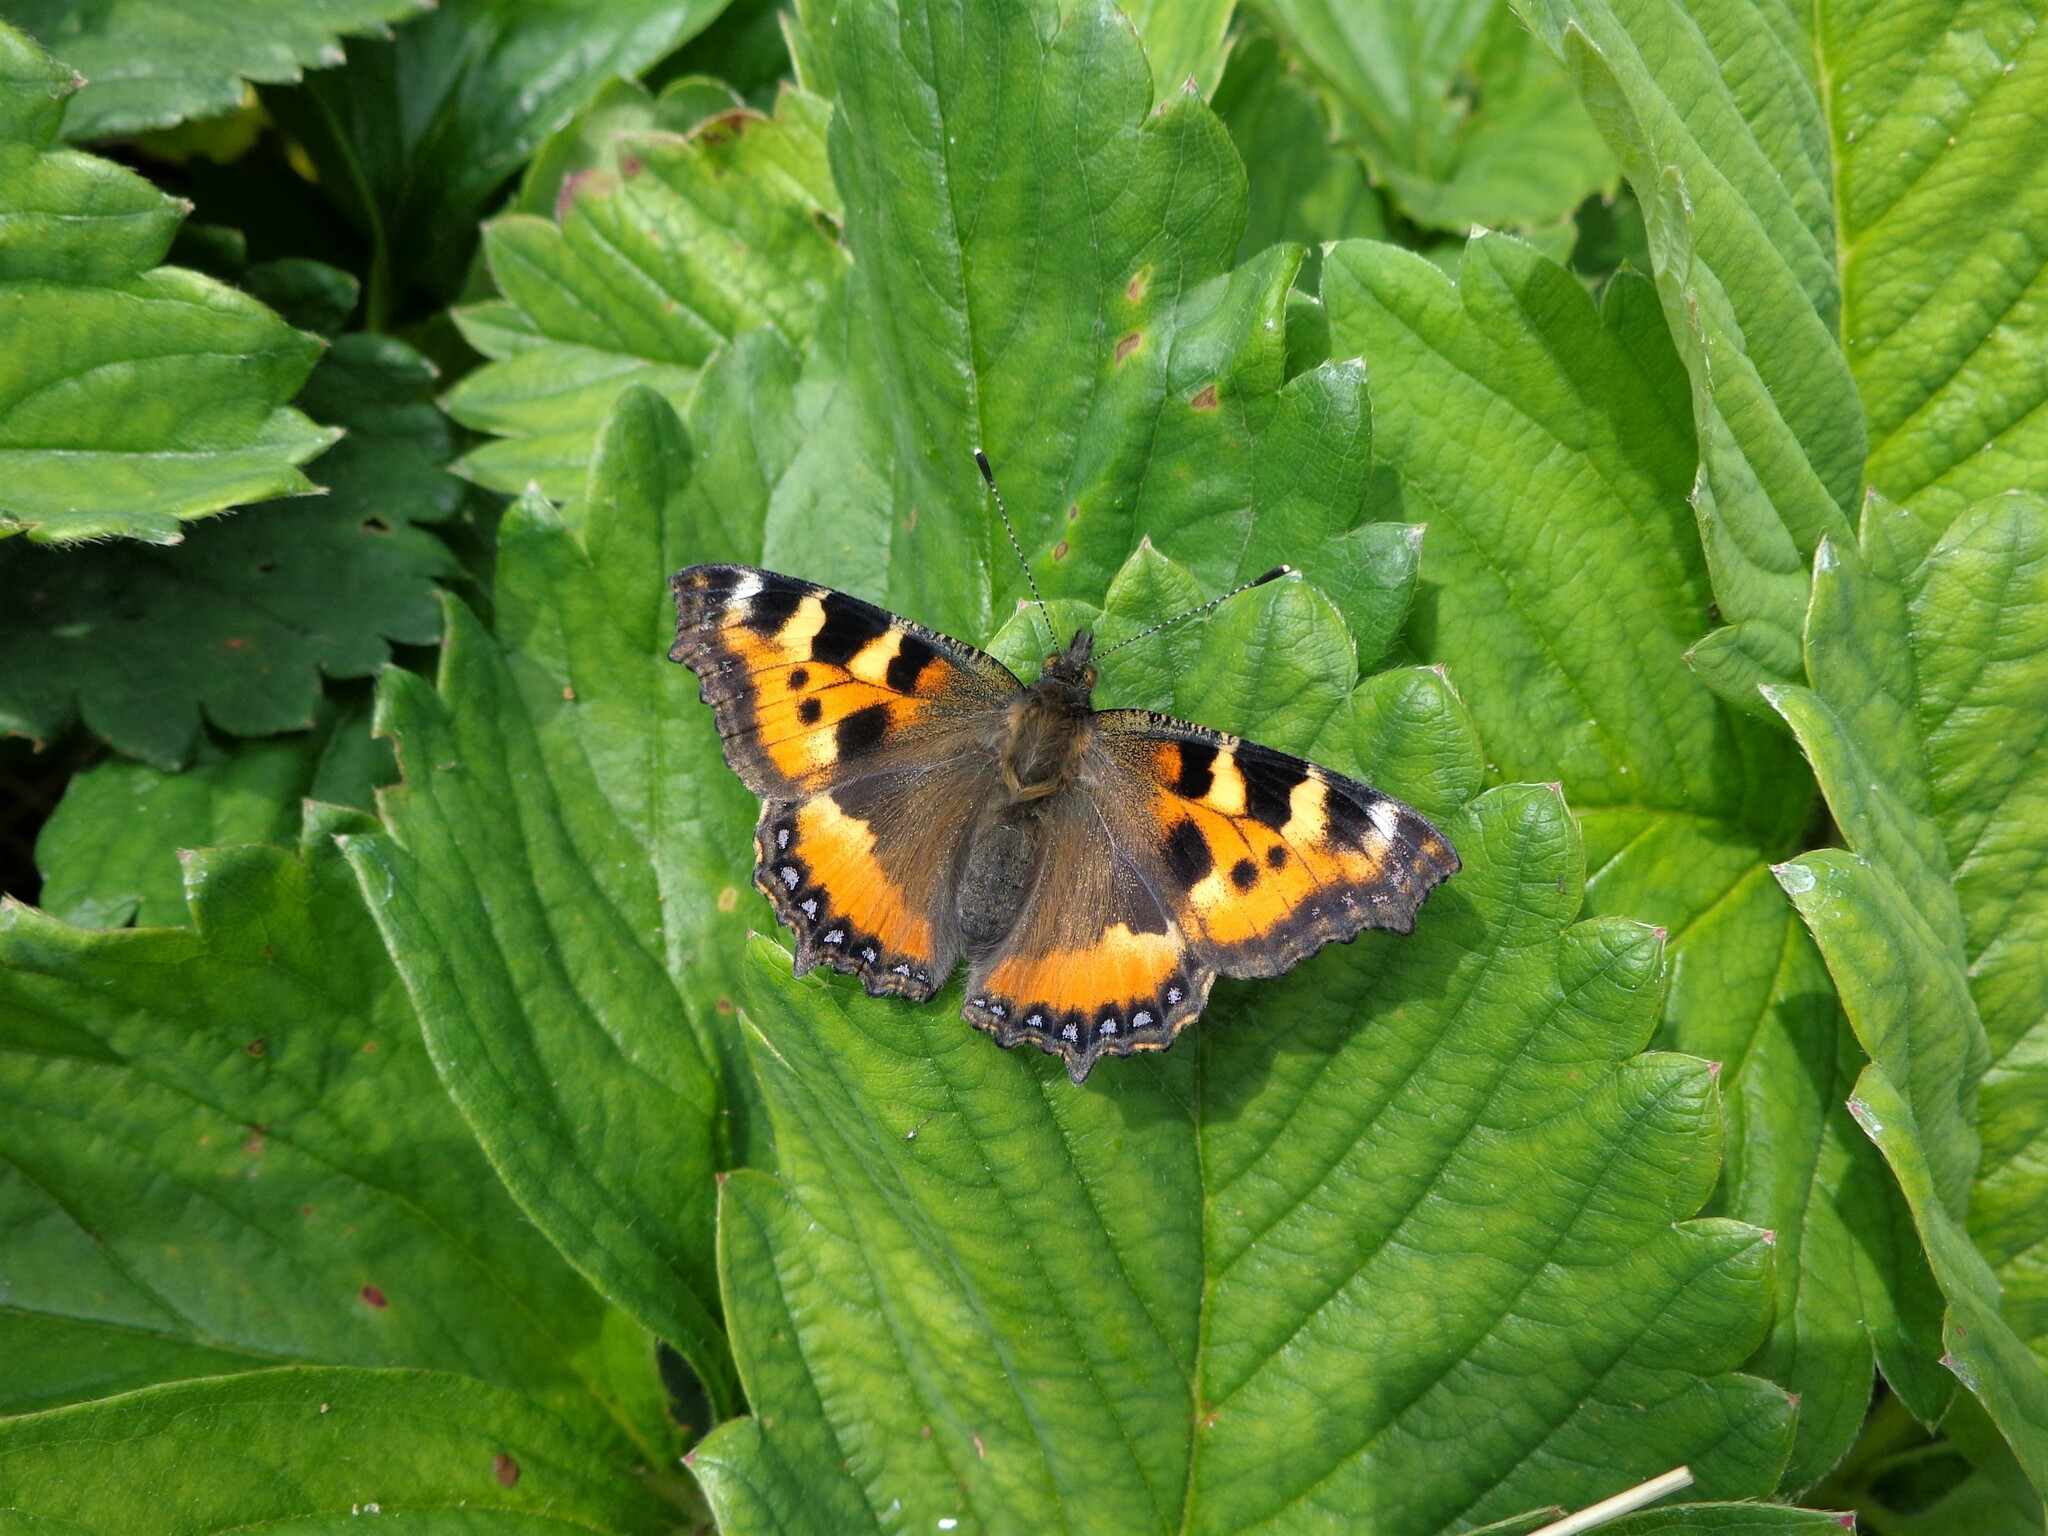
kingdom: Animalia
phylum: Arthropoda
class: Insecta
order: Lepidoptera
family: Nymphalidae
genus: Aglais
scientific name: Aglais urticae
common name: Small tortoiseshell
